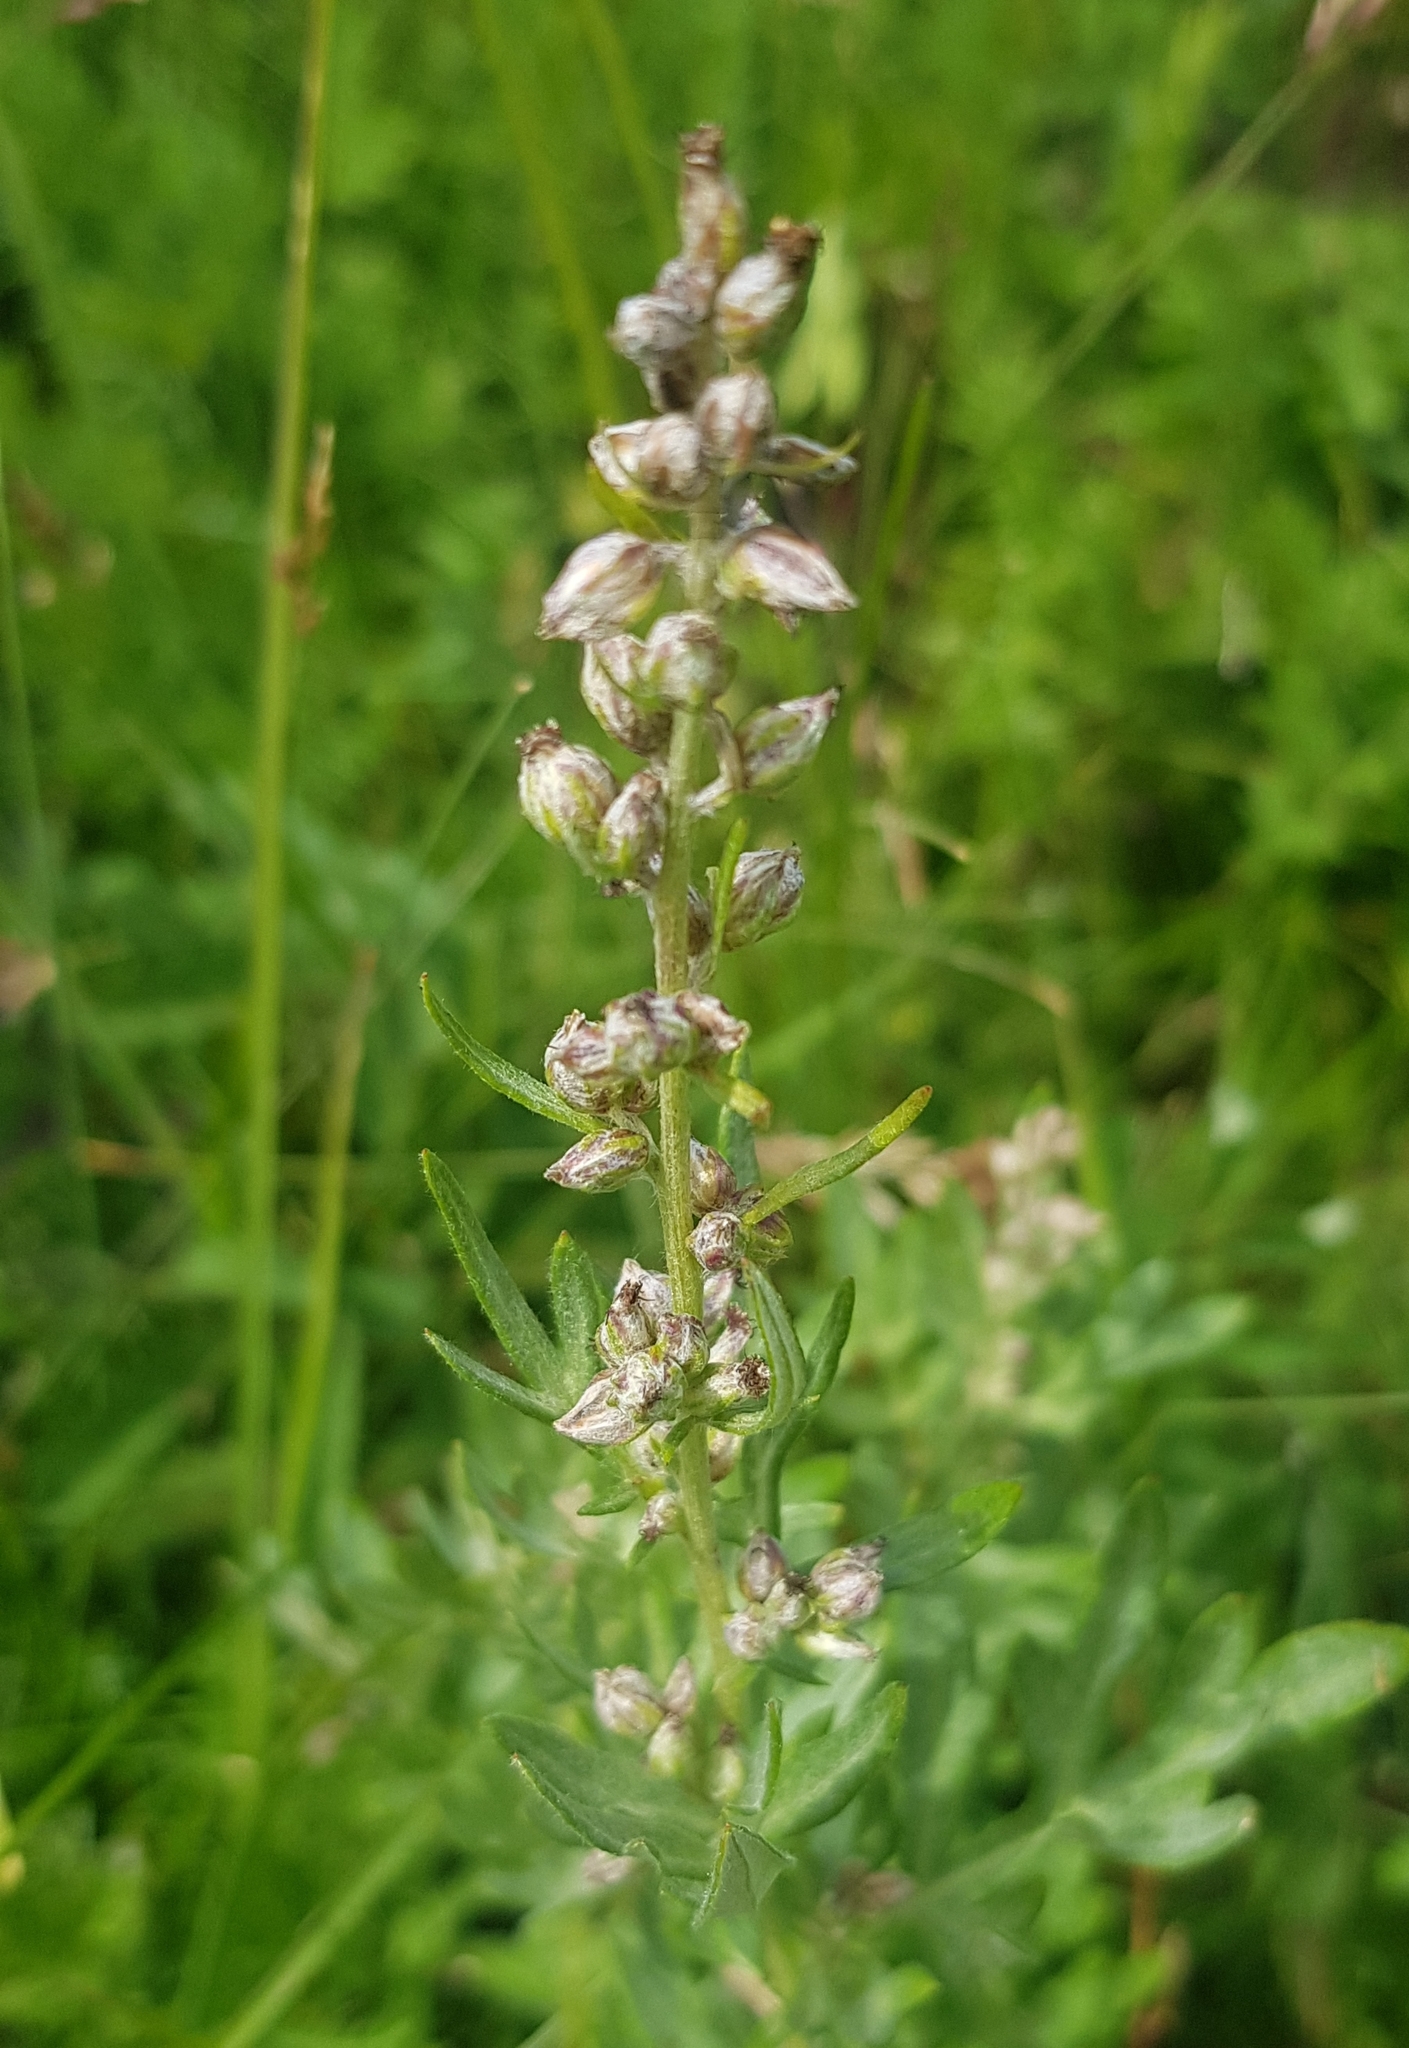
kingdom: Plantae
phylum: Tracheophyta
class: Magnoliopsida
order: Asterales
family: Asteraceae
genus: Artemisia
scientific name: Artemisia absinthium
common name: Wormwood
